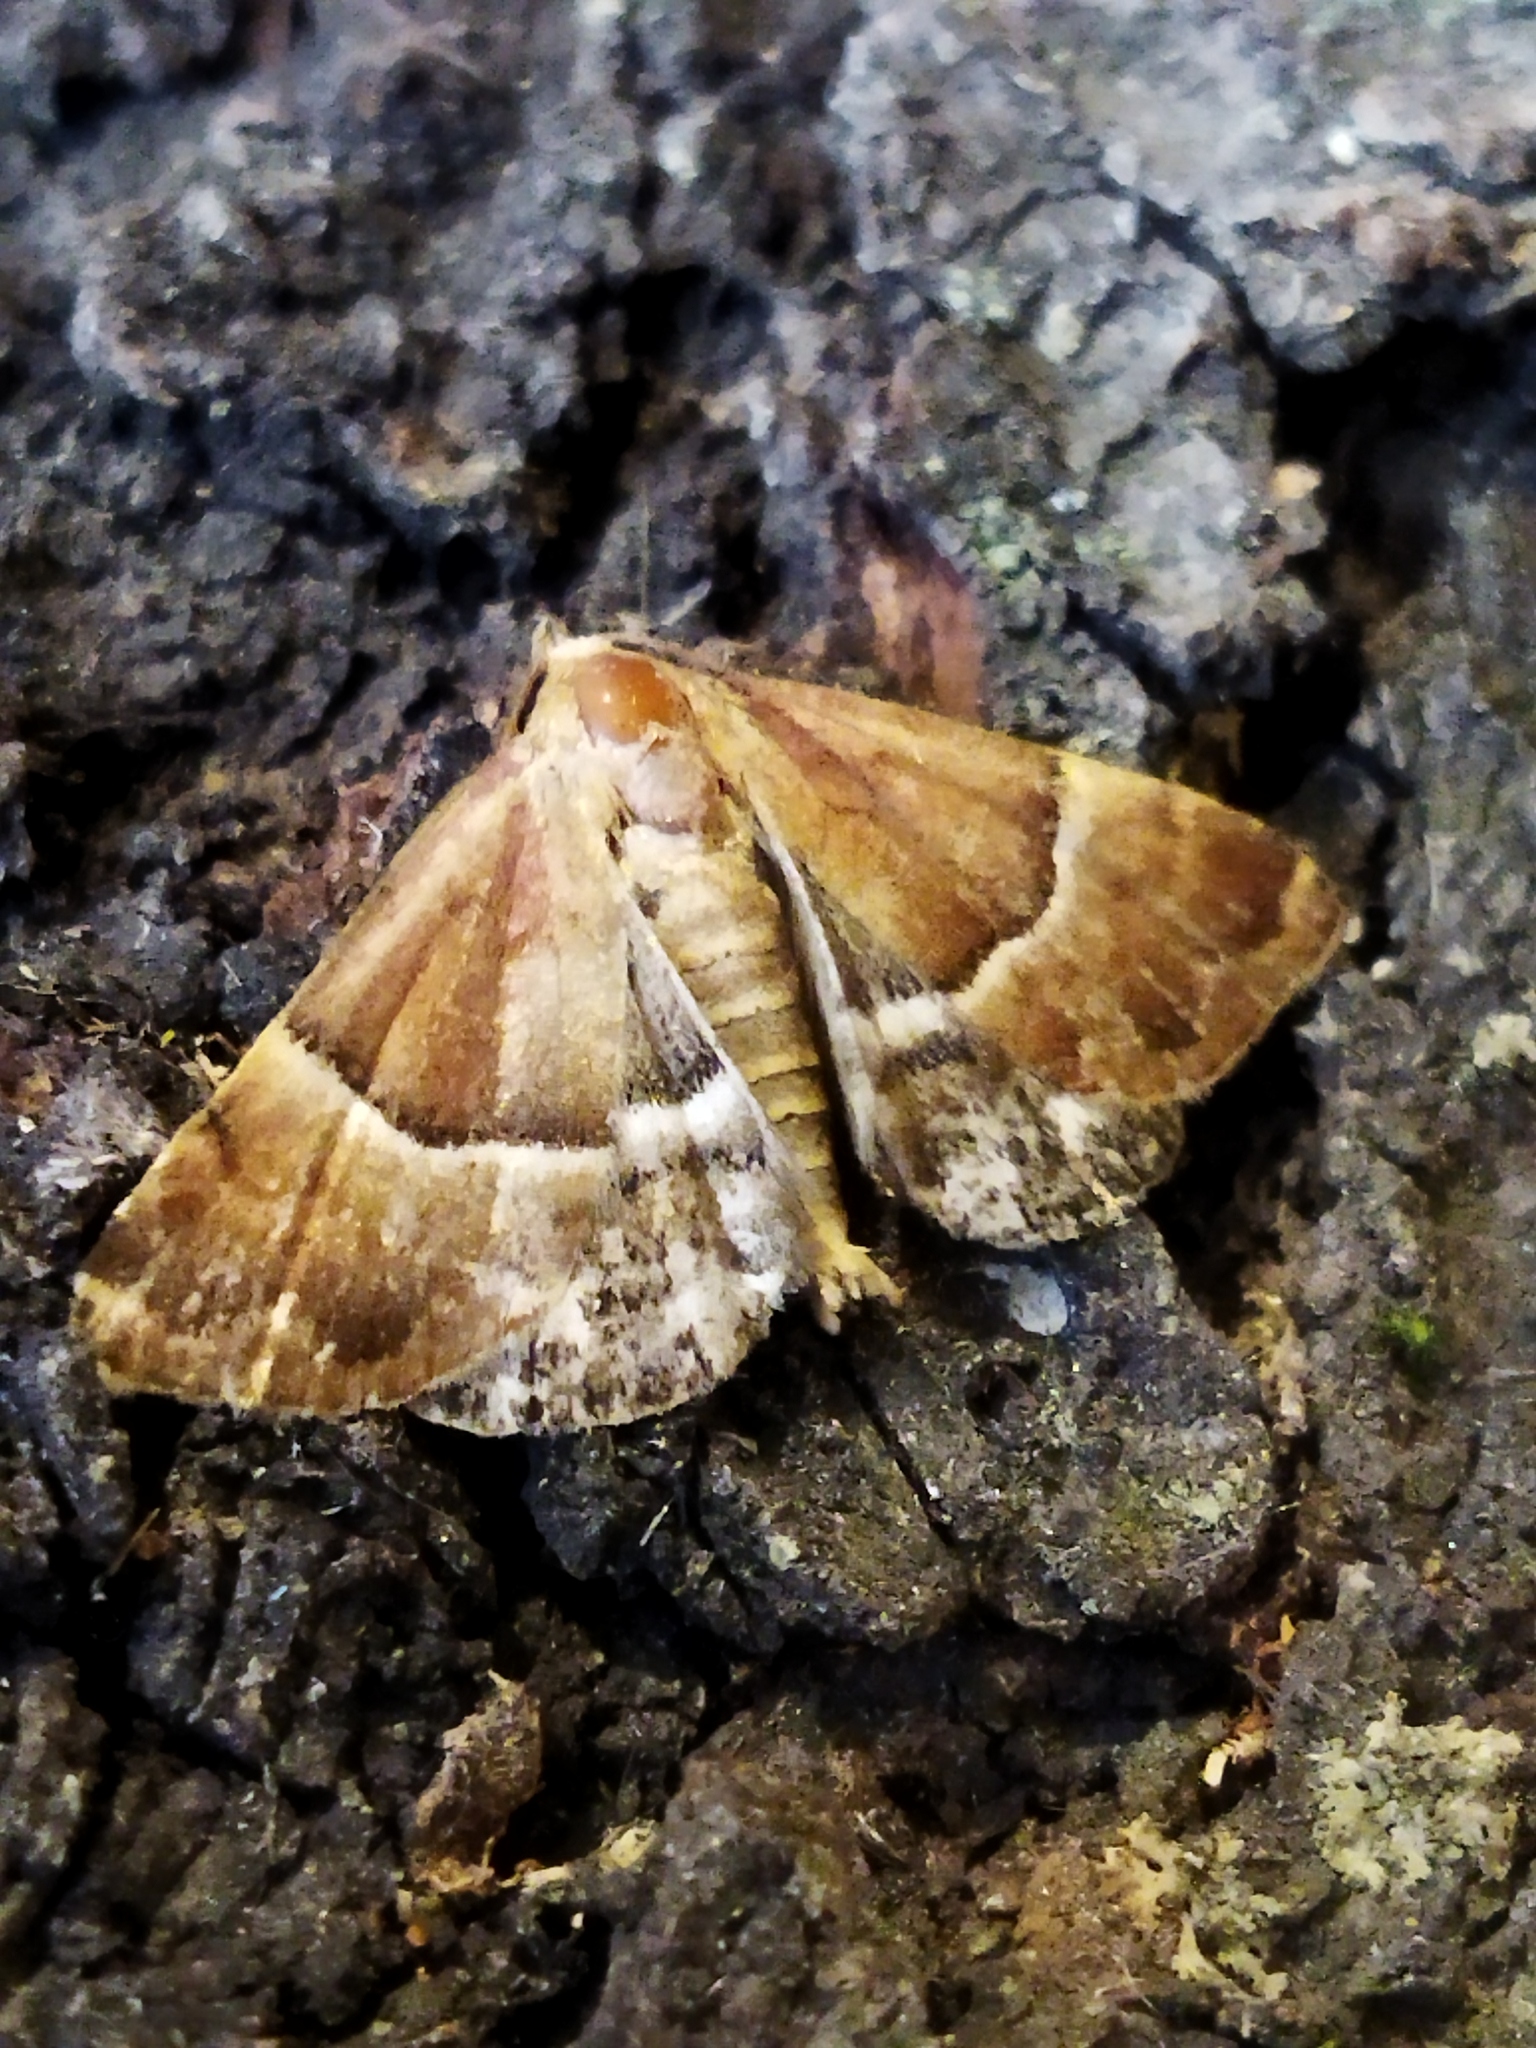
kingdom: Animalia
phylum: Arthropoda
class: Insecta
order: Lepidoptera
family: Noctuidae
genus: Odice
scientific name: Odice suava
